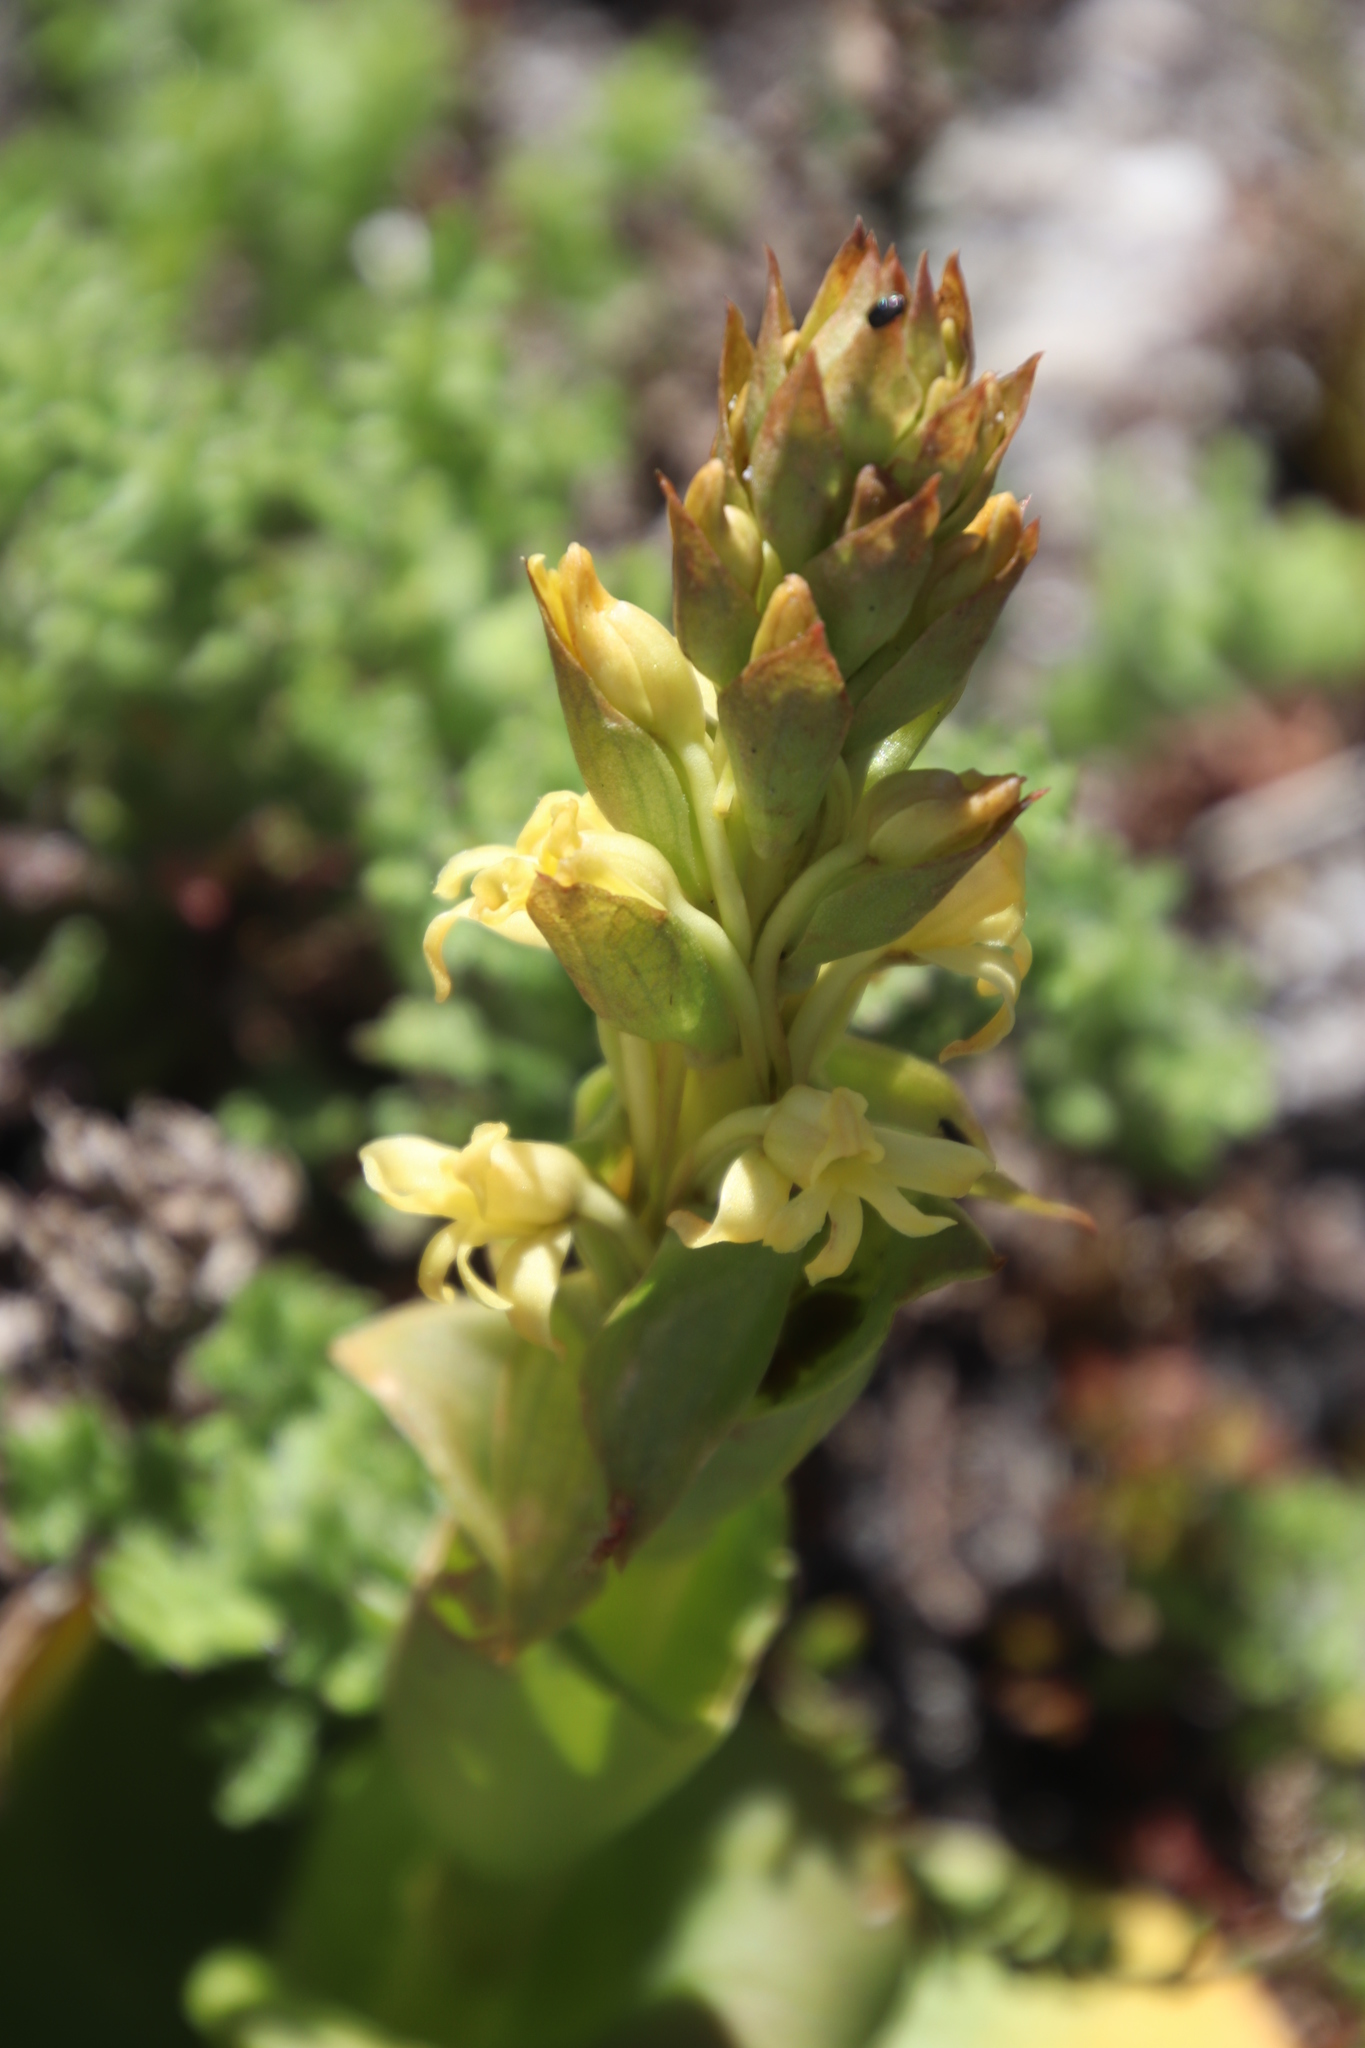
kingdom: Plantae
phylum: Tracheophyta
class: Liliopsida
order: Asparagales
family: Orchidaceae
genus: Satyrium
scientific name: Satyrium situsanguinum
